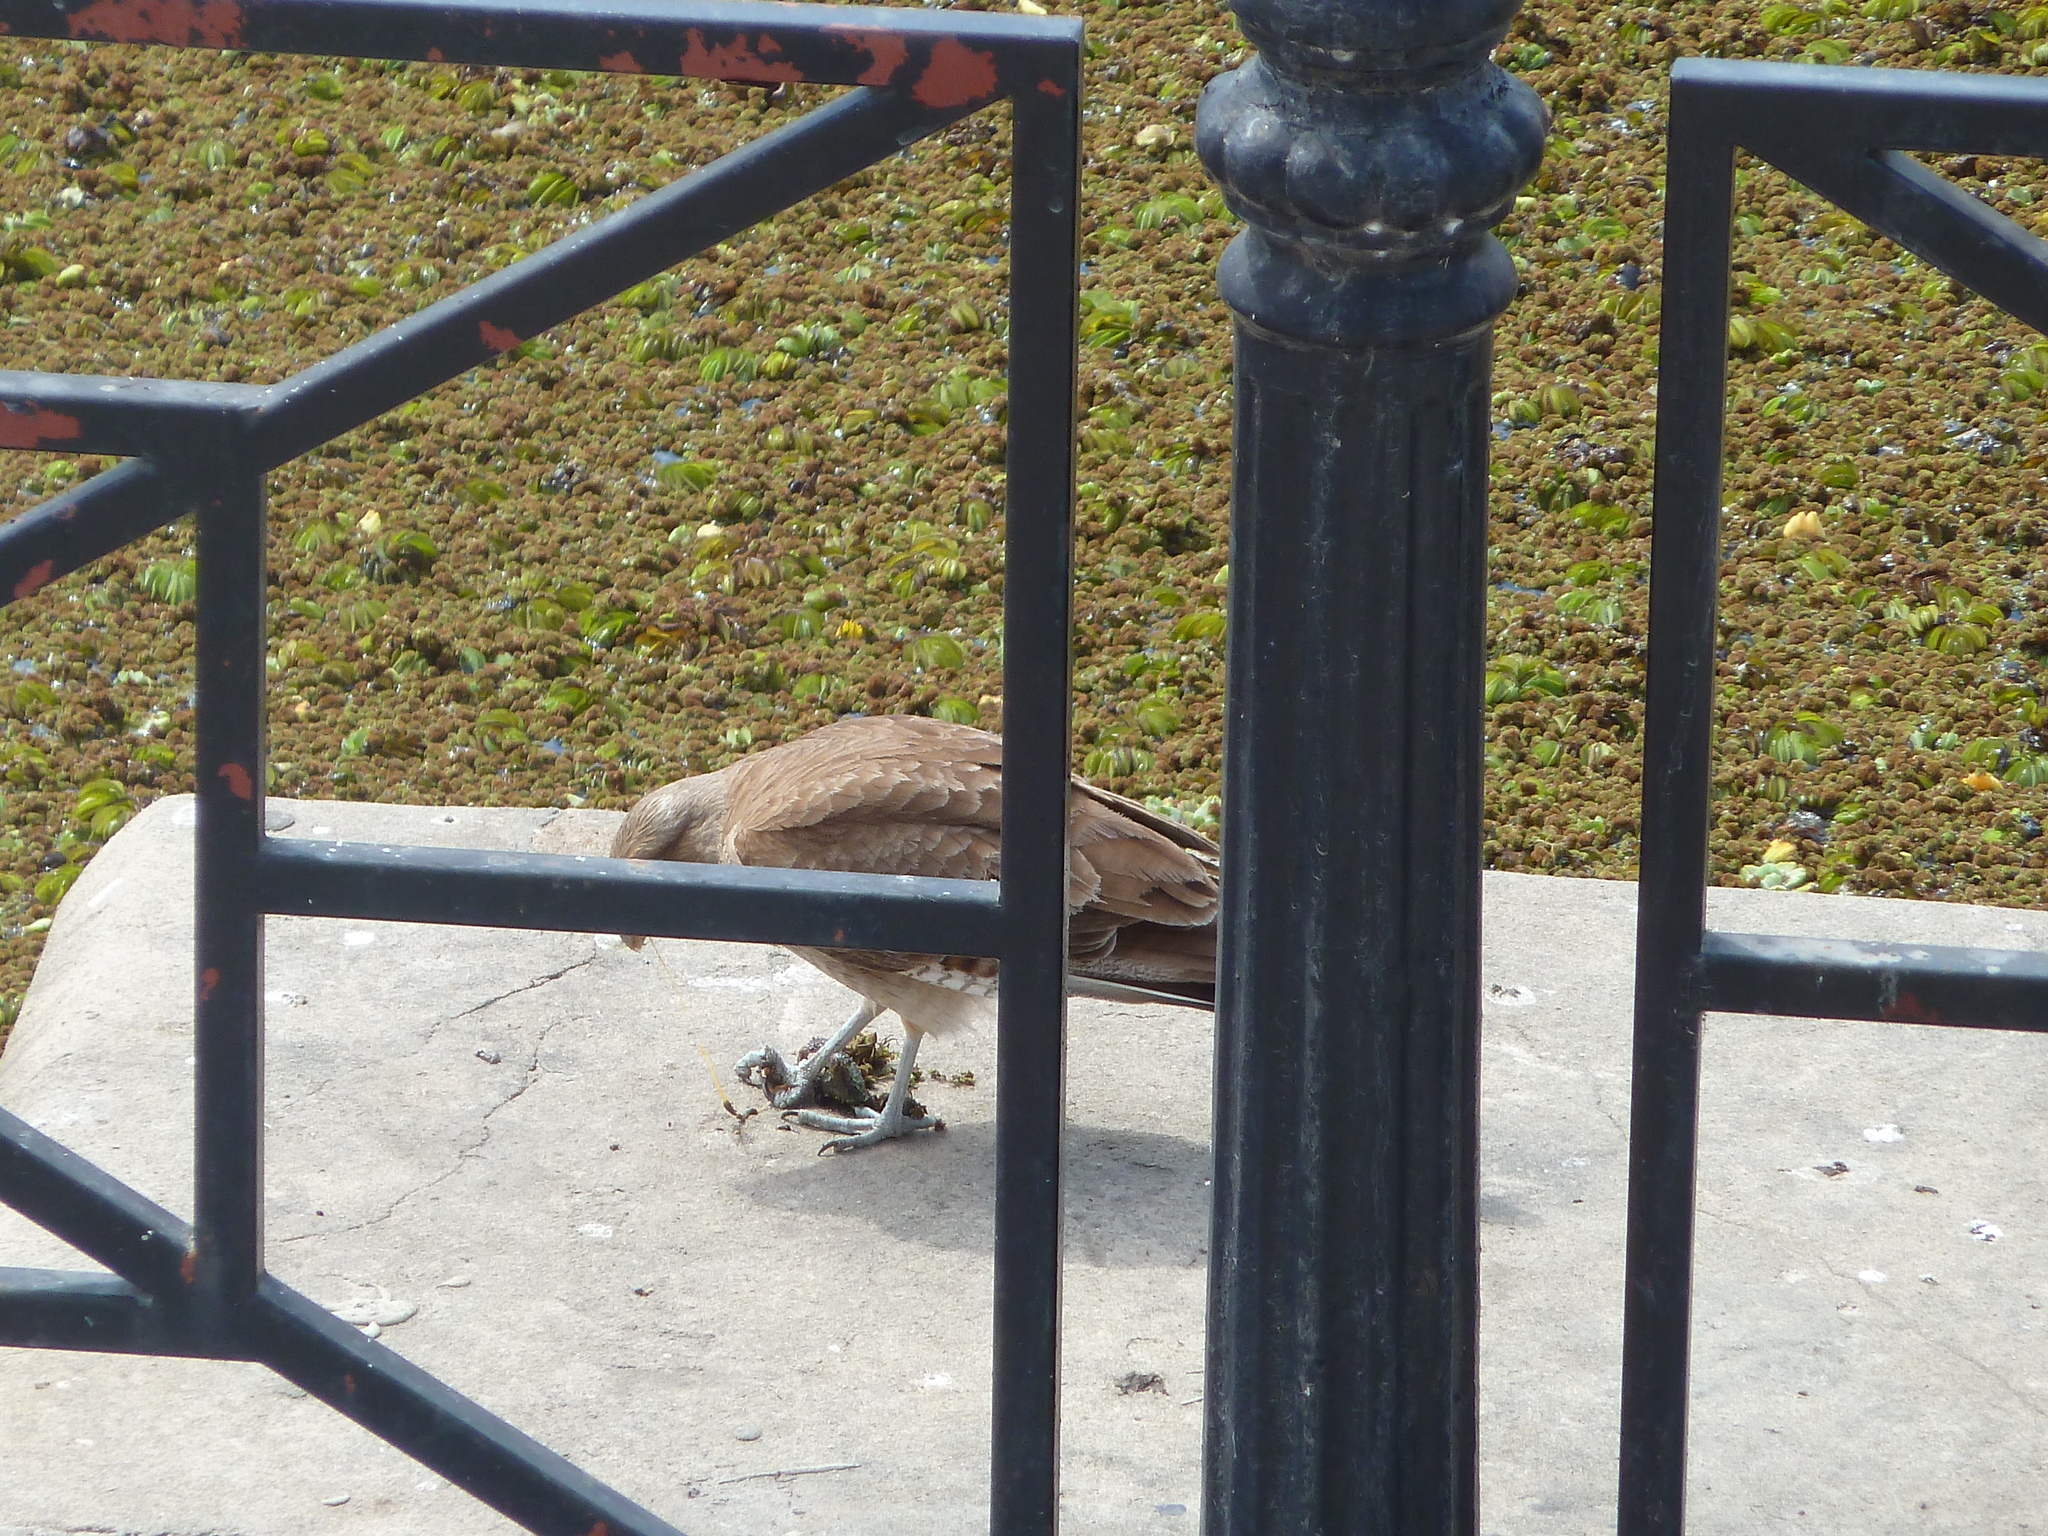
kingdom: Animalia
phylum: Chordata
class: Aves
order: Falconiformes
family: Falconidae
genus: Daptrius
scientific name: Daptrius
